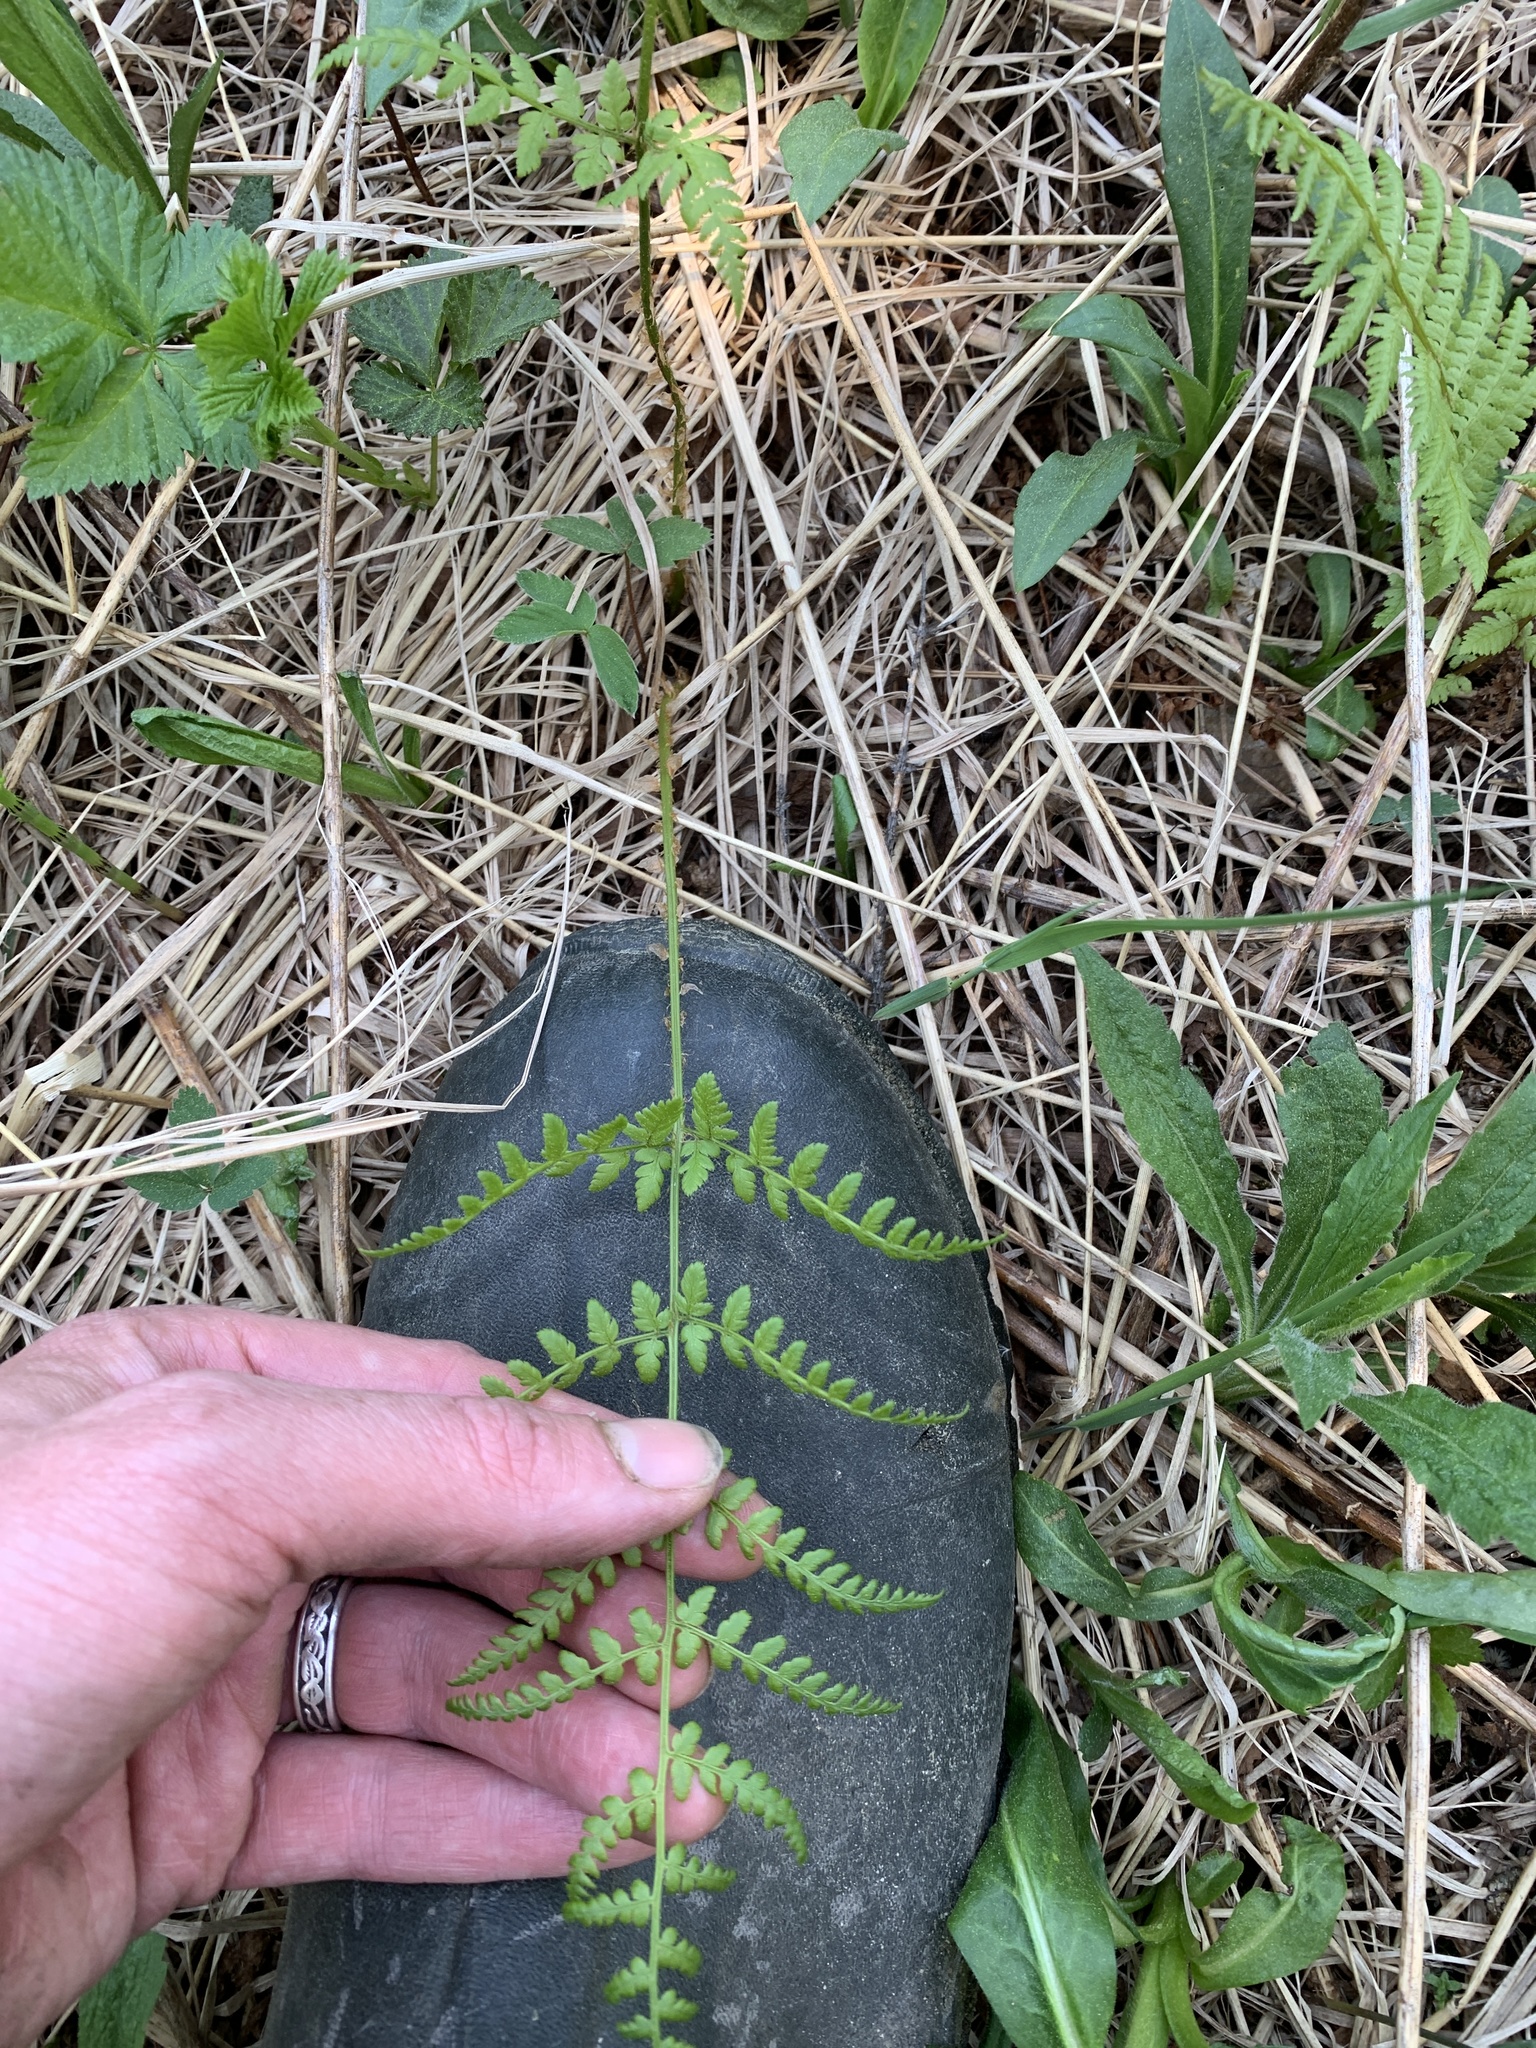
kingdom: Plantae
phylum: Tracheophyta
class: Polypodiopsida
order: Polypodiales
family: Dryopteridaceae
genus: Dryopteris
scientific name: Dryopteris intermedia
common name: Evergreen wood fern
